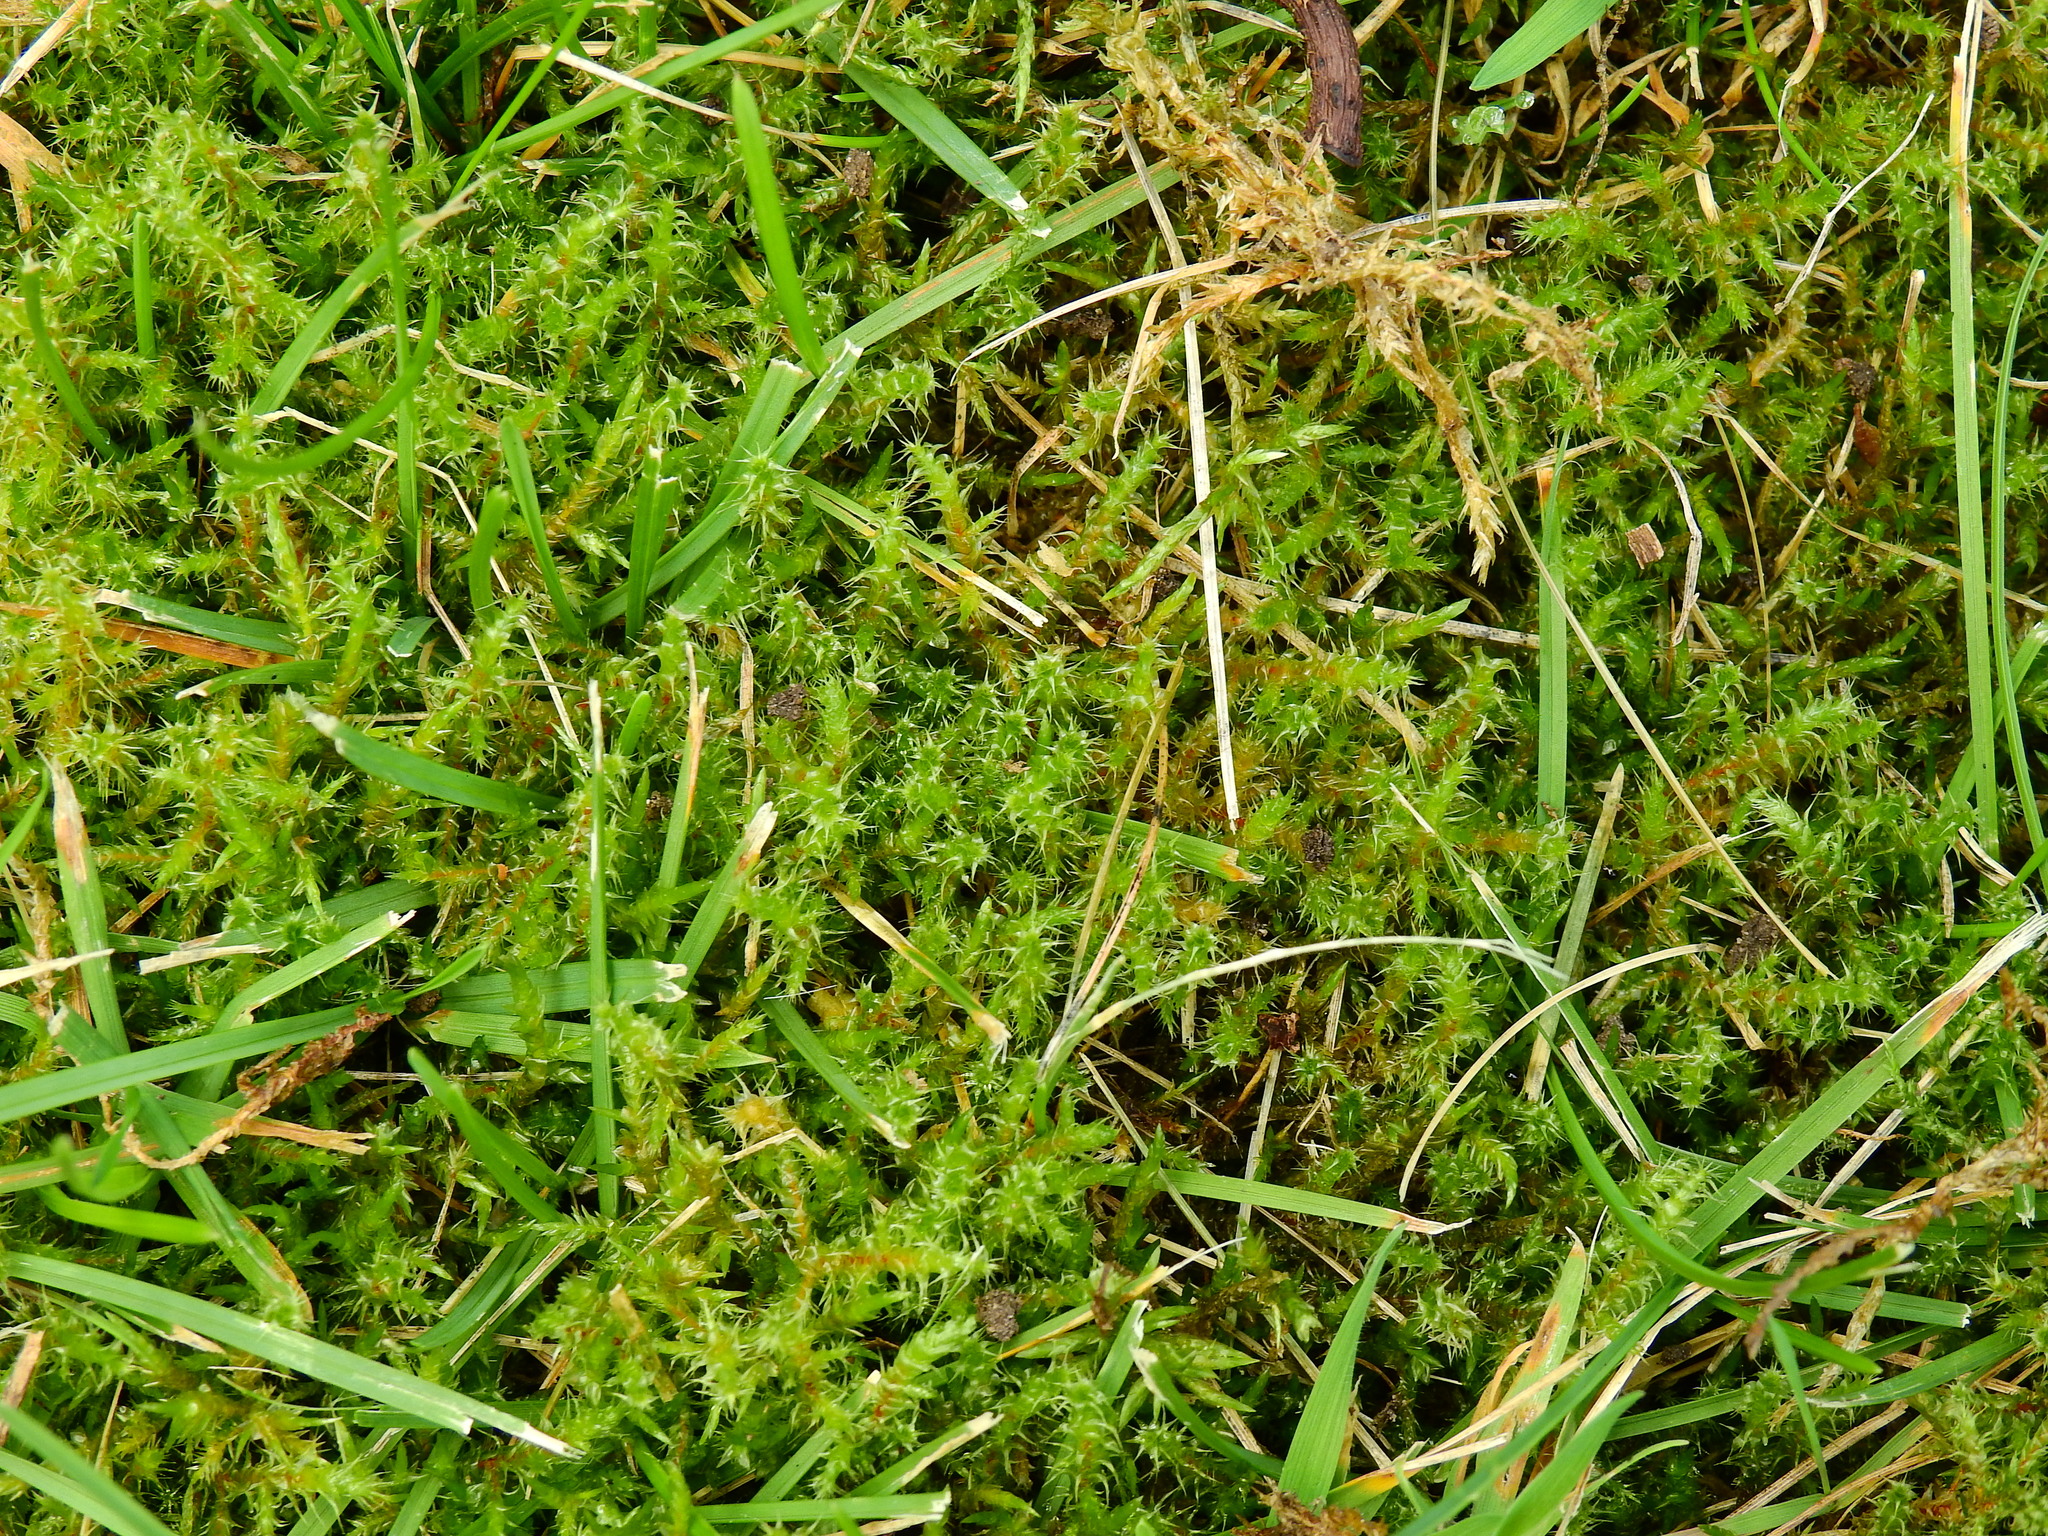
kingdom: Plantae
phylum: Bryophyta
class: Bryopsida
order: Hypnales
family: Hylocomiaceae
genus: Rhytidiadelphus
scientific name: Rhytidiadelphus squarrosus
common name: Springy turf-moss
